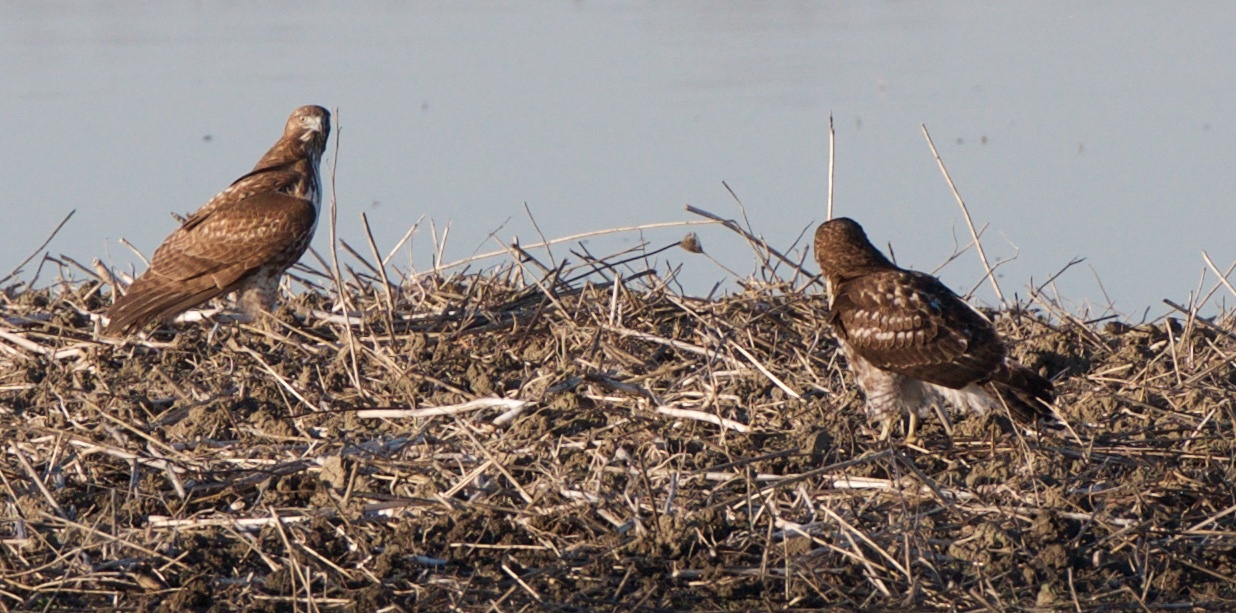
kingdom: Animalia
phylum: Chordata
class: Aves
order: Accipitriformes
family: Accipitridae
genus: Buteo
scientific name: Buteo jamaicensis
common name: Red-tailed hawk
